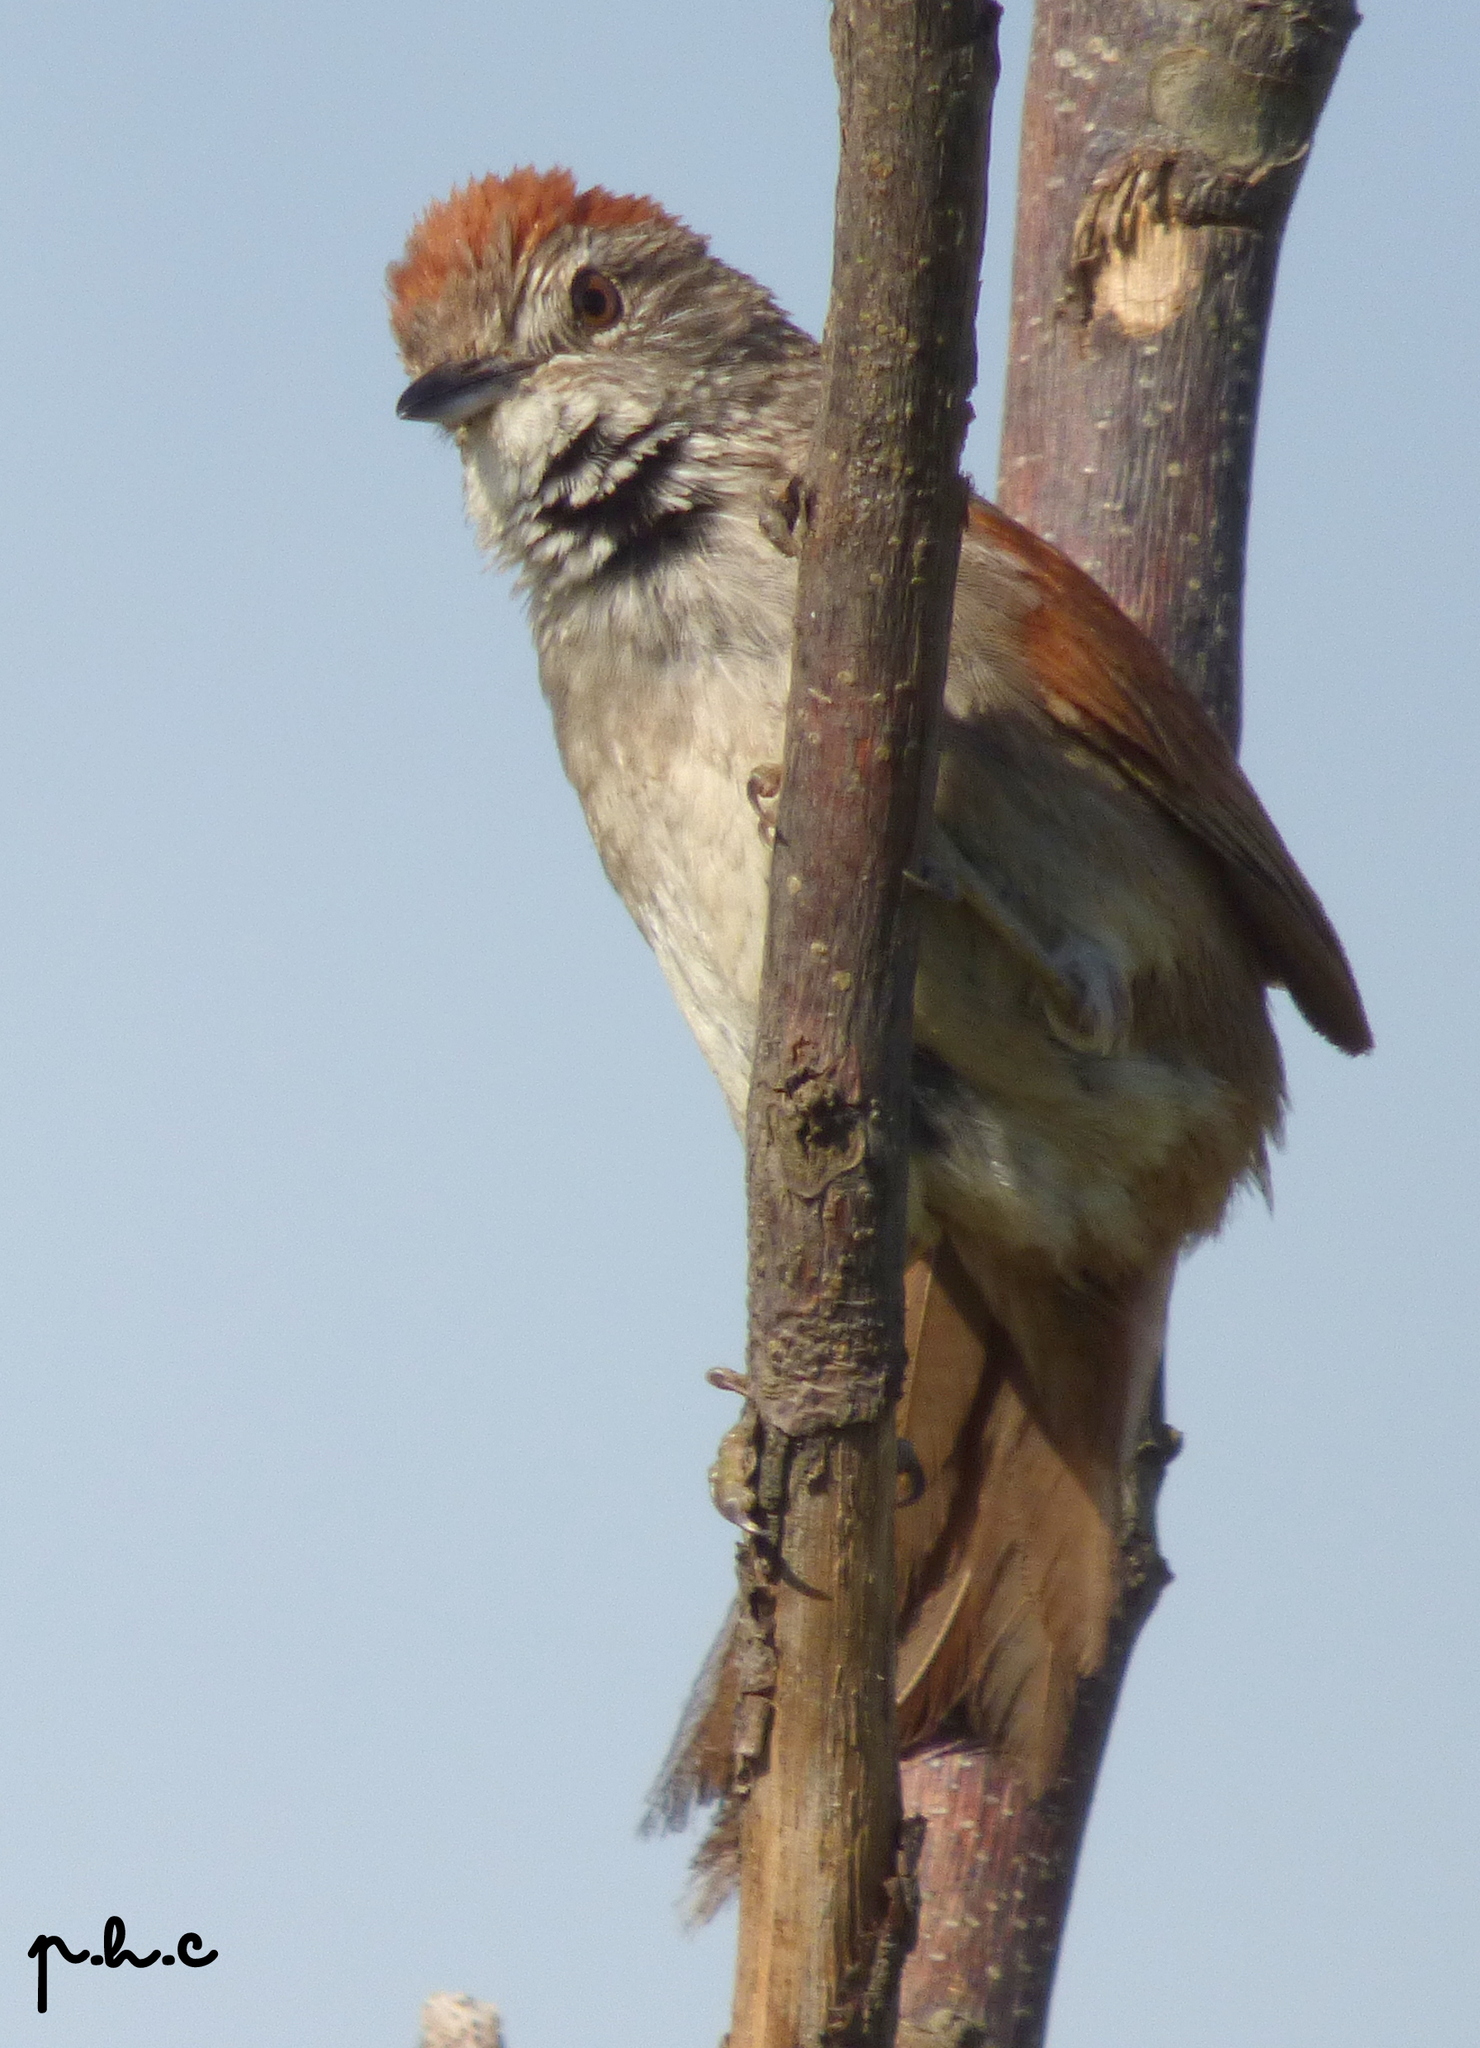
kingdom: Animalia
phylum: Chordata
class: Aves
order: Passeriformes
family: Furnariidae
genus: Synallaxis
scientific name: Synallaxis albescens
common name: Pale-breasted spinetail
